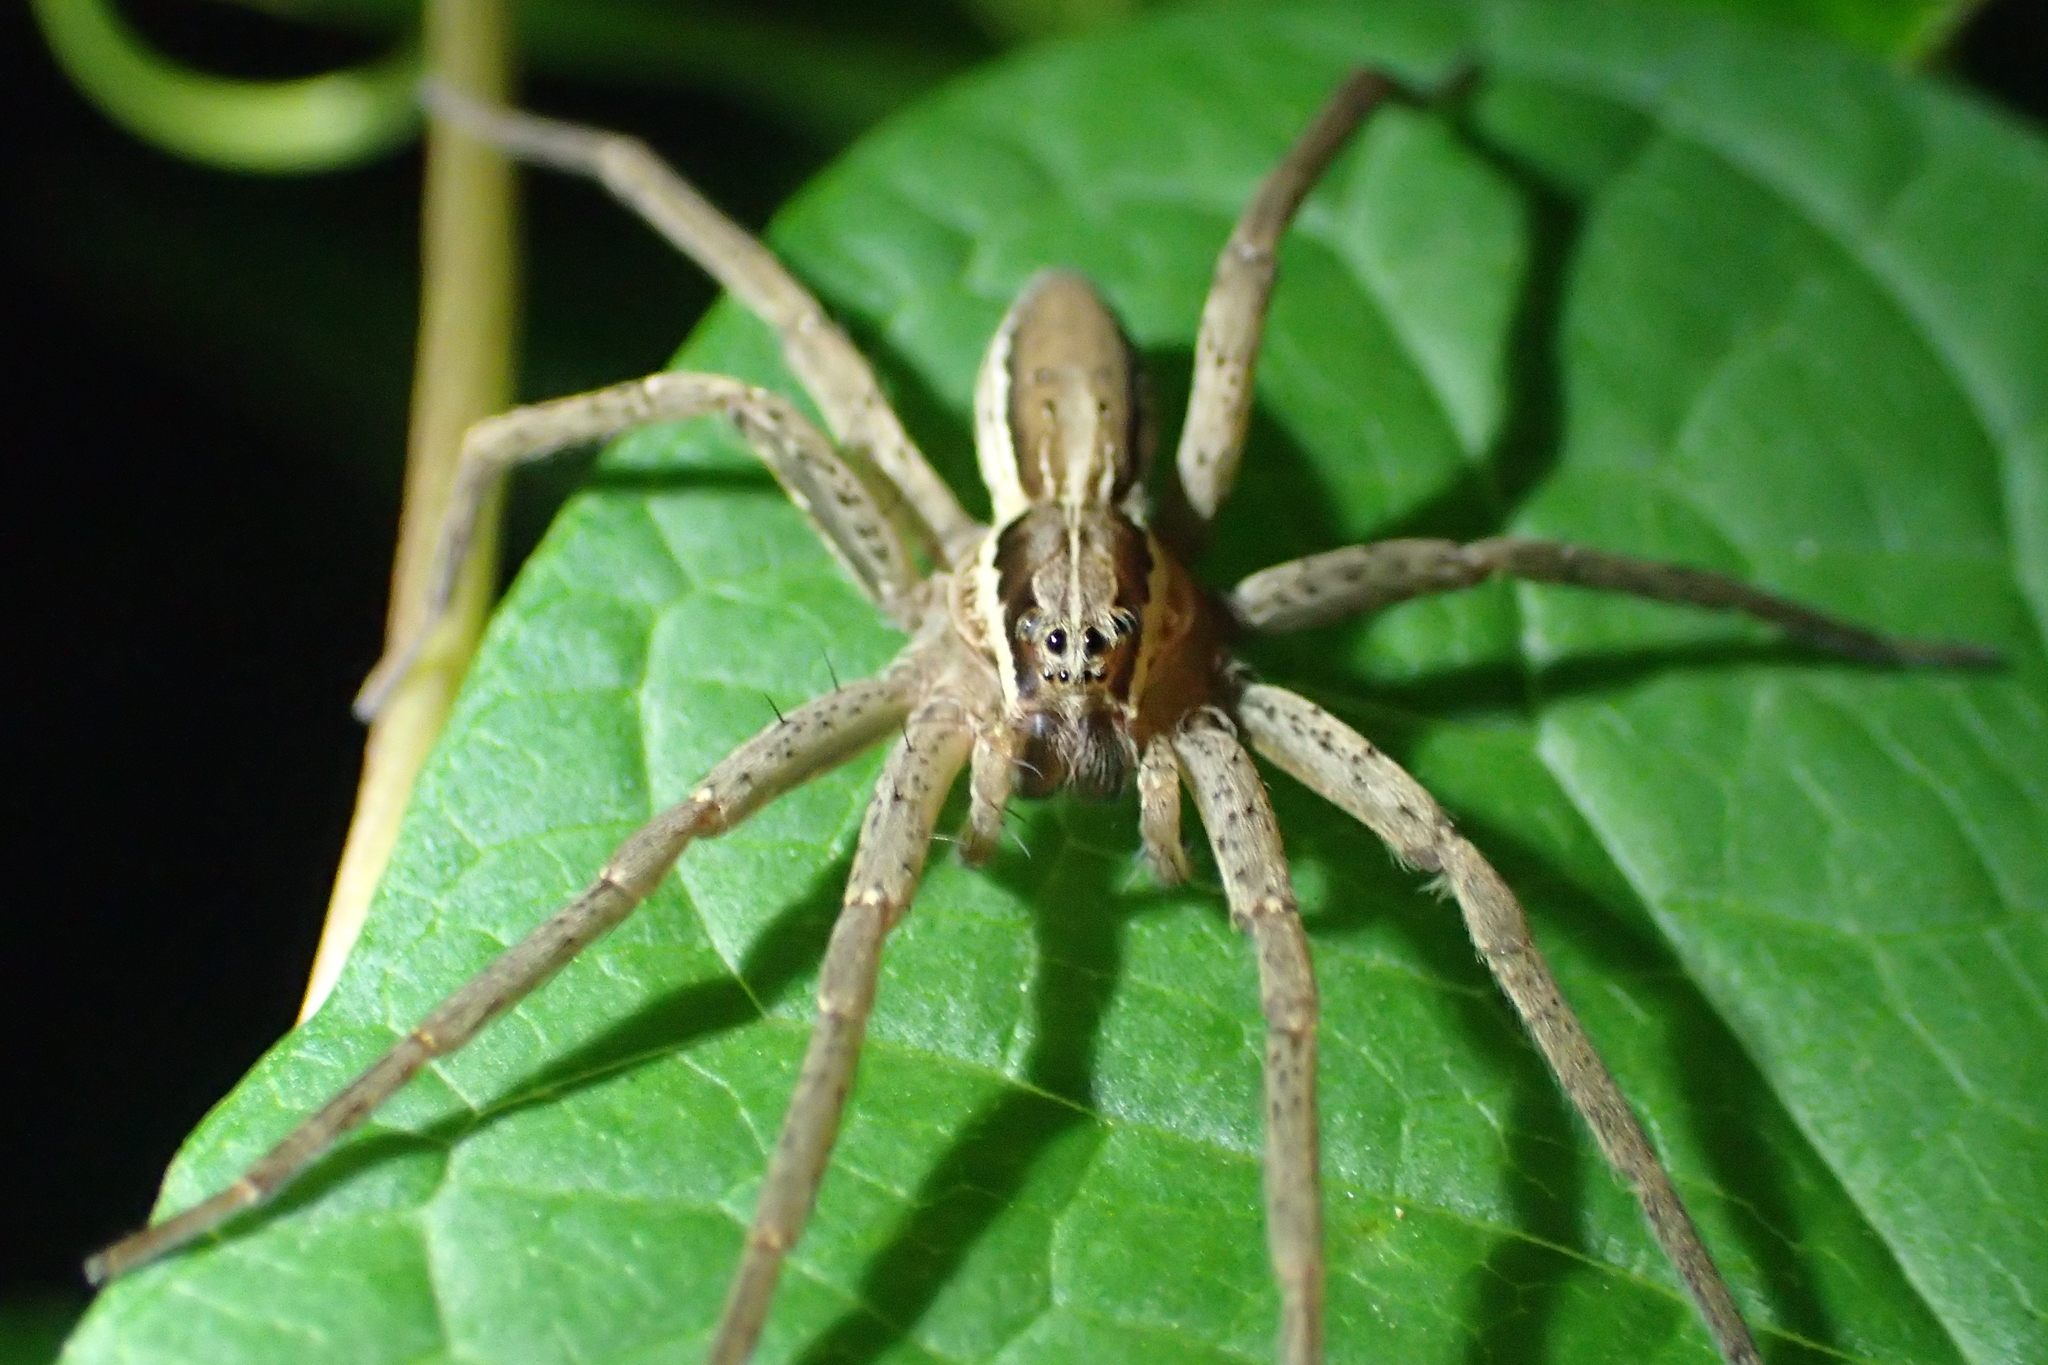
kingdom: Animalia
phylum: Arthropoda
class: Arachnida
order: Araneae
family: Pisauridae
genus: Dolomedes
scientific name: Dolomedes minor
